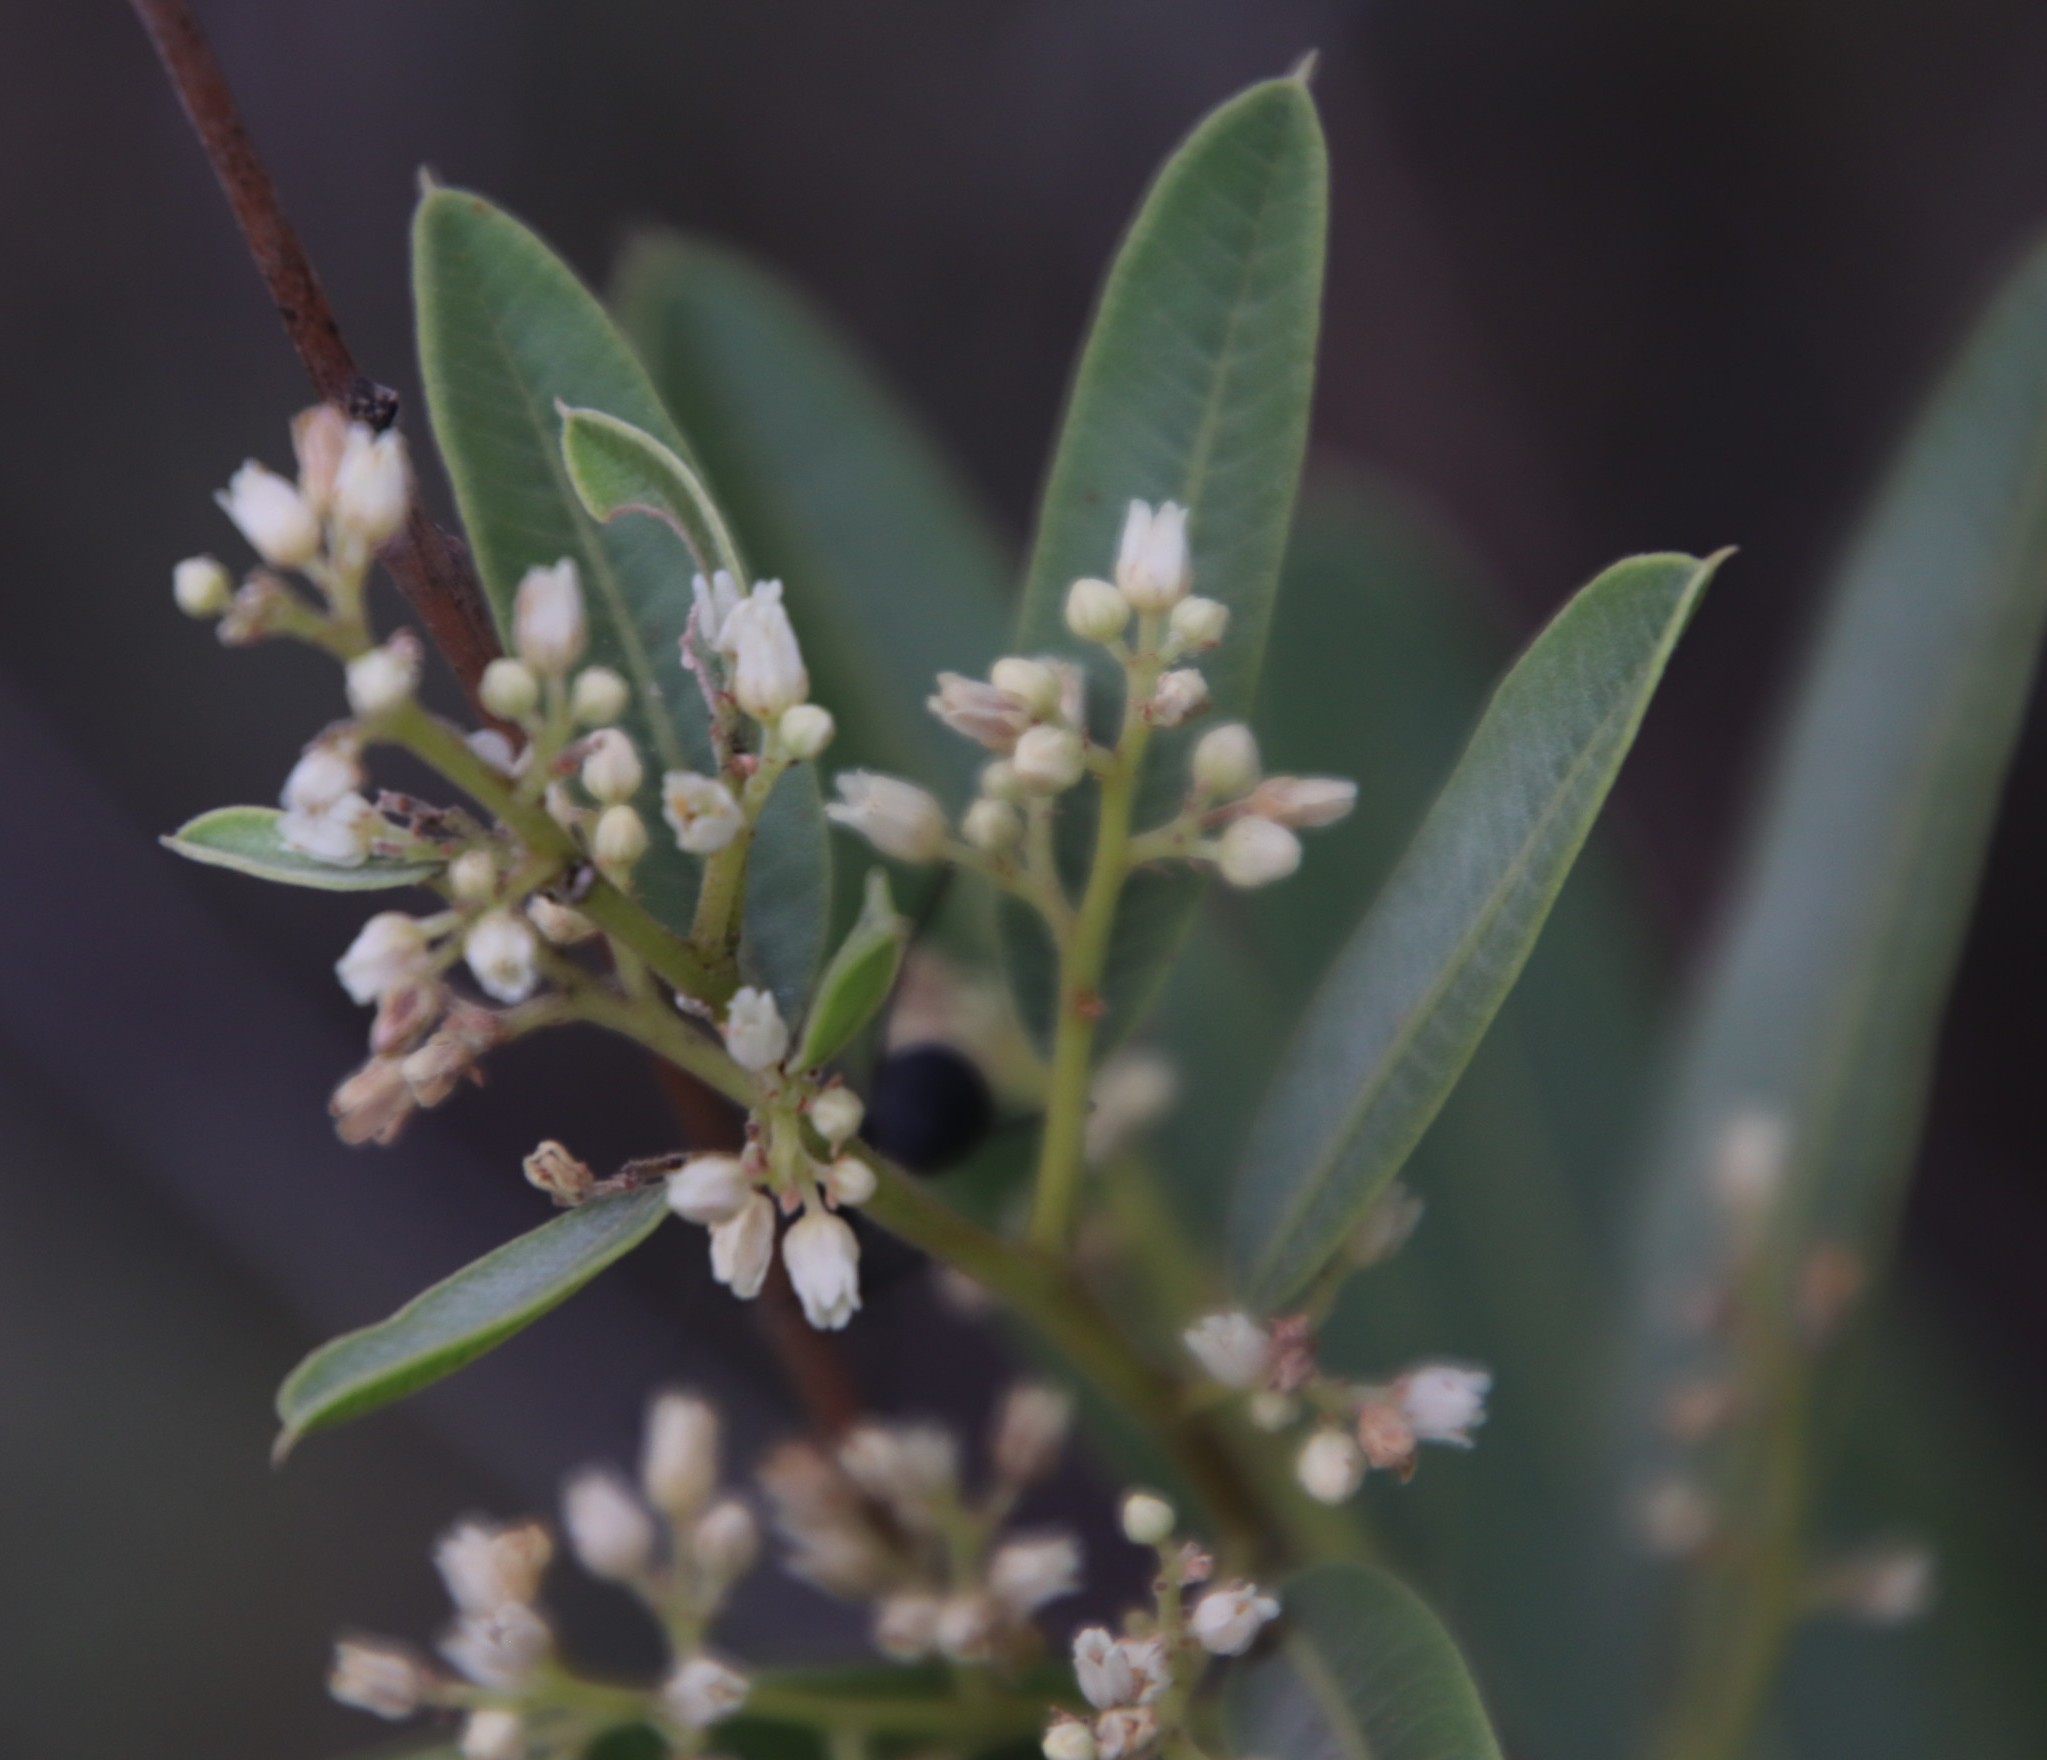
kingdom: Animalia
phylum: Arthropoda
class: Insecta
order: Hymenoptera
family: Formicidae
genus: Polyrhachis
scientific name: Polyrhachis schistacea
